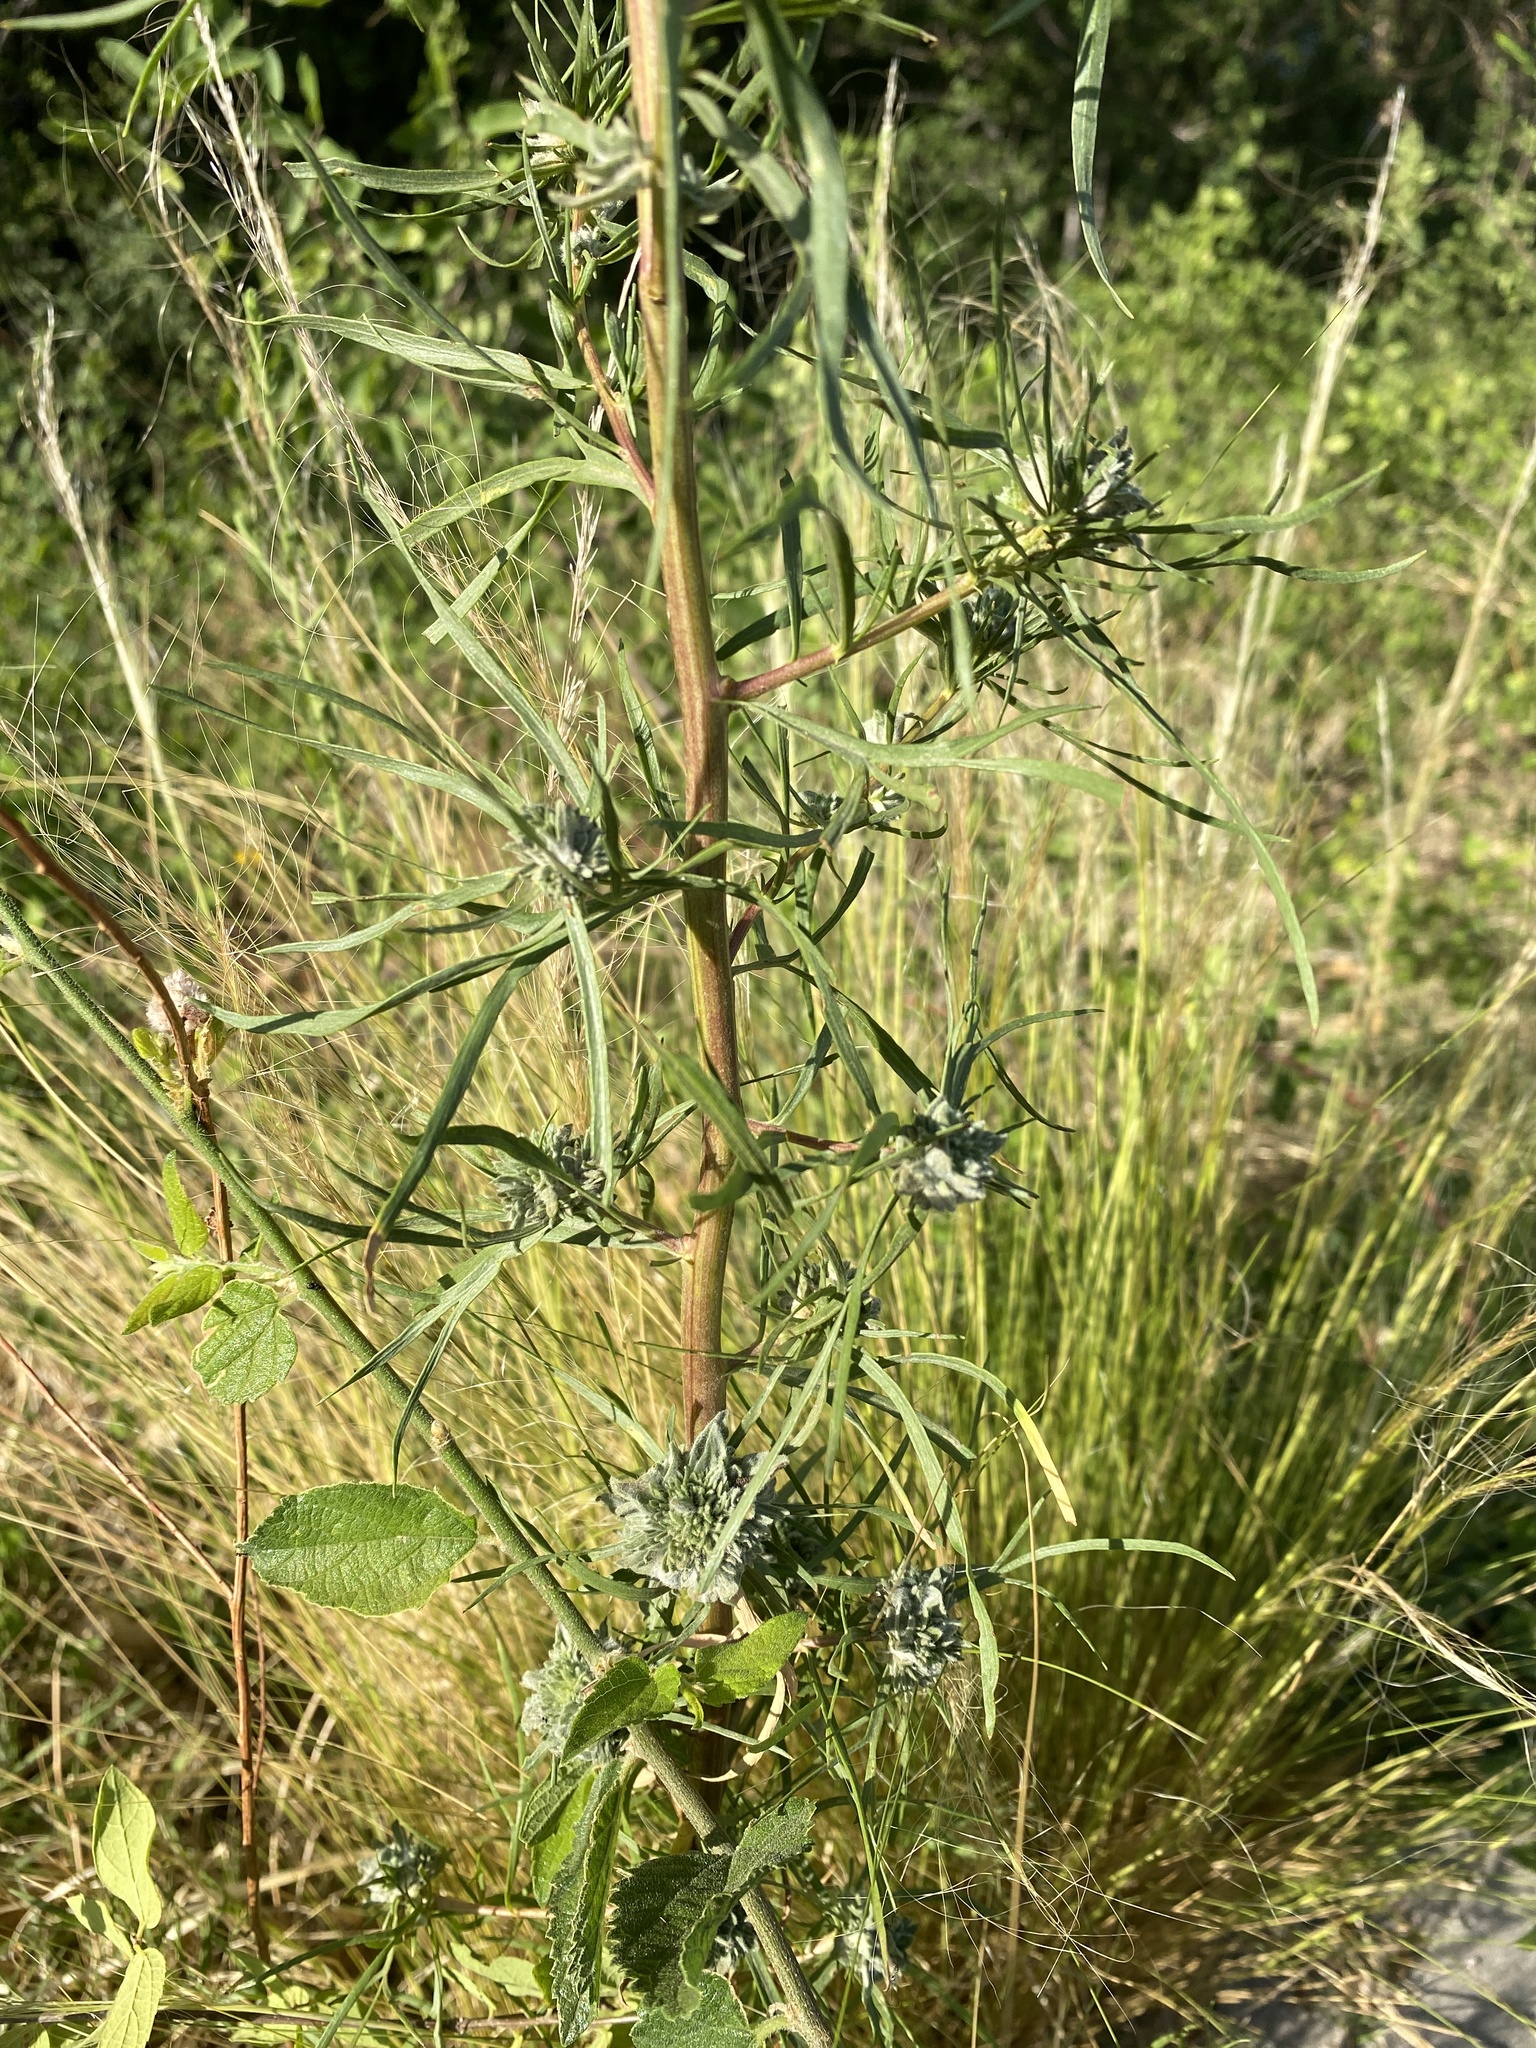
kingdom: Plantae
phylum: Tracheophyta
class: Magnoliopsida
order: Asterales
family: Asteraceae
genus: Artemisia
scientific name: Artemisia dracunculus
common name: Tarragon
